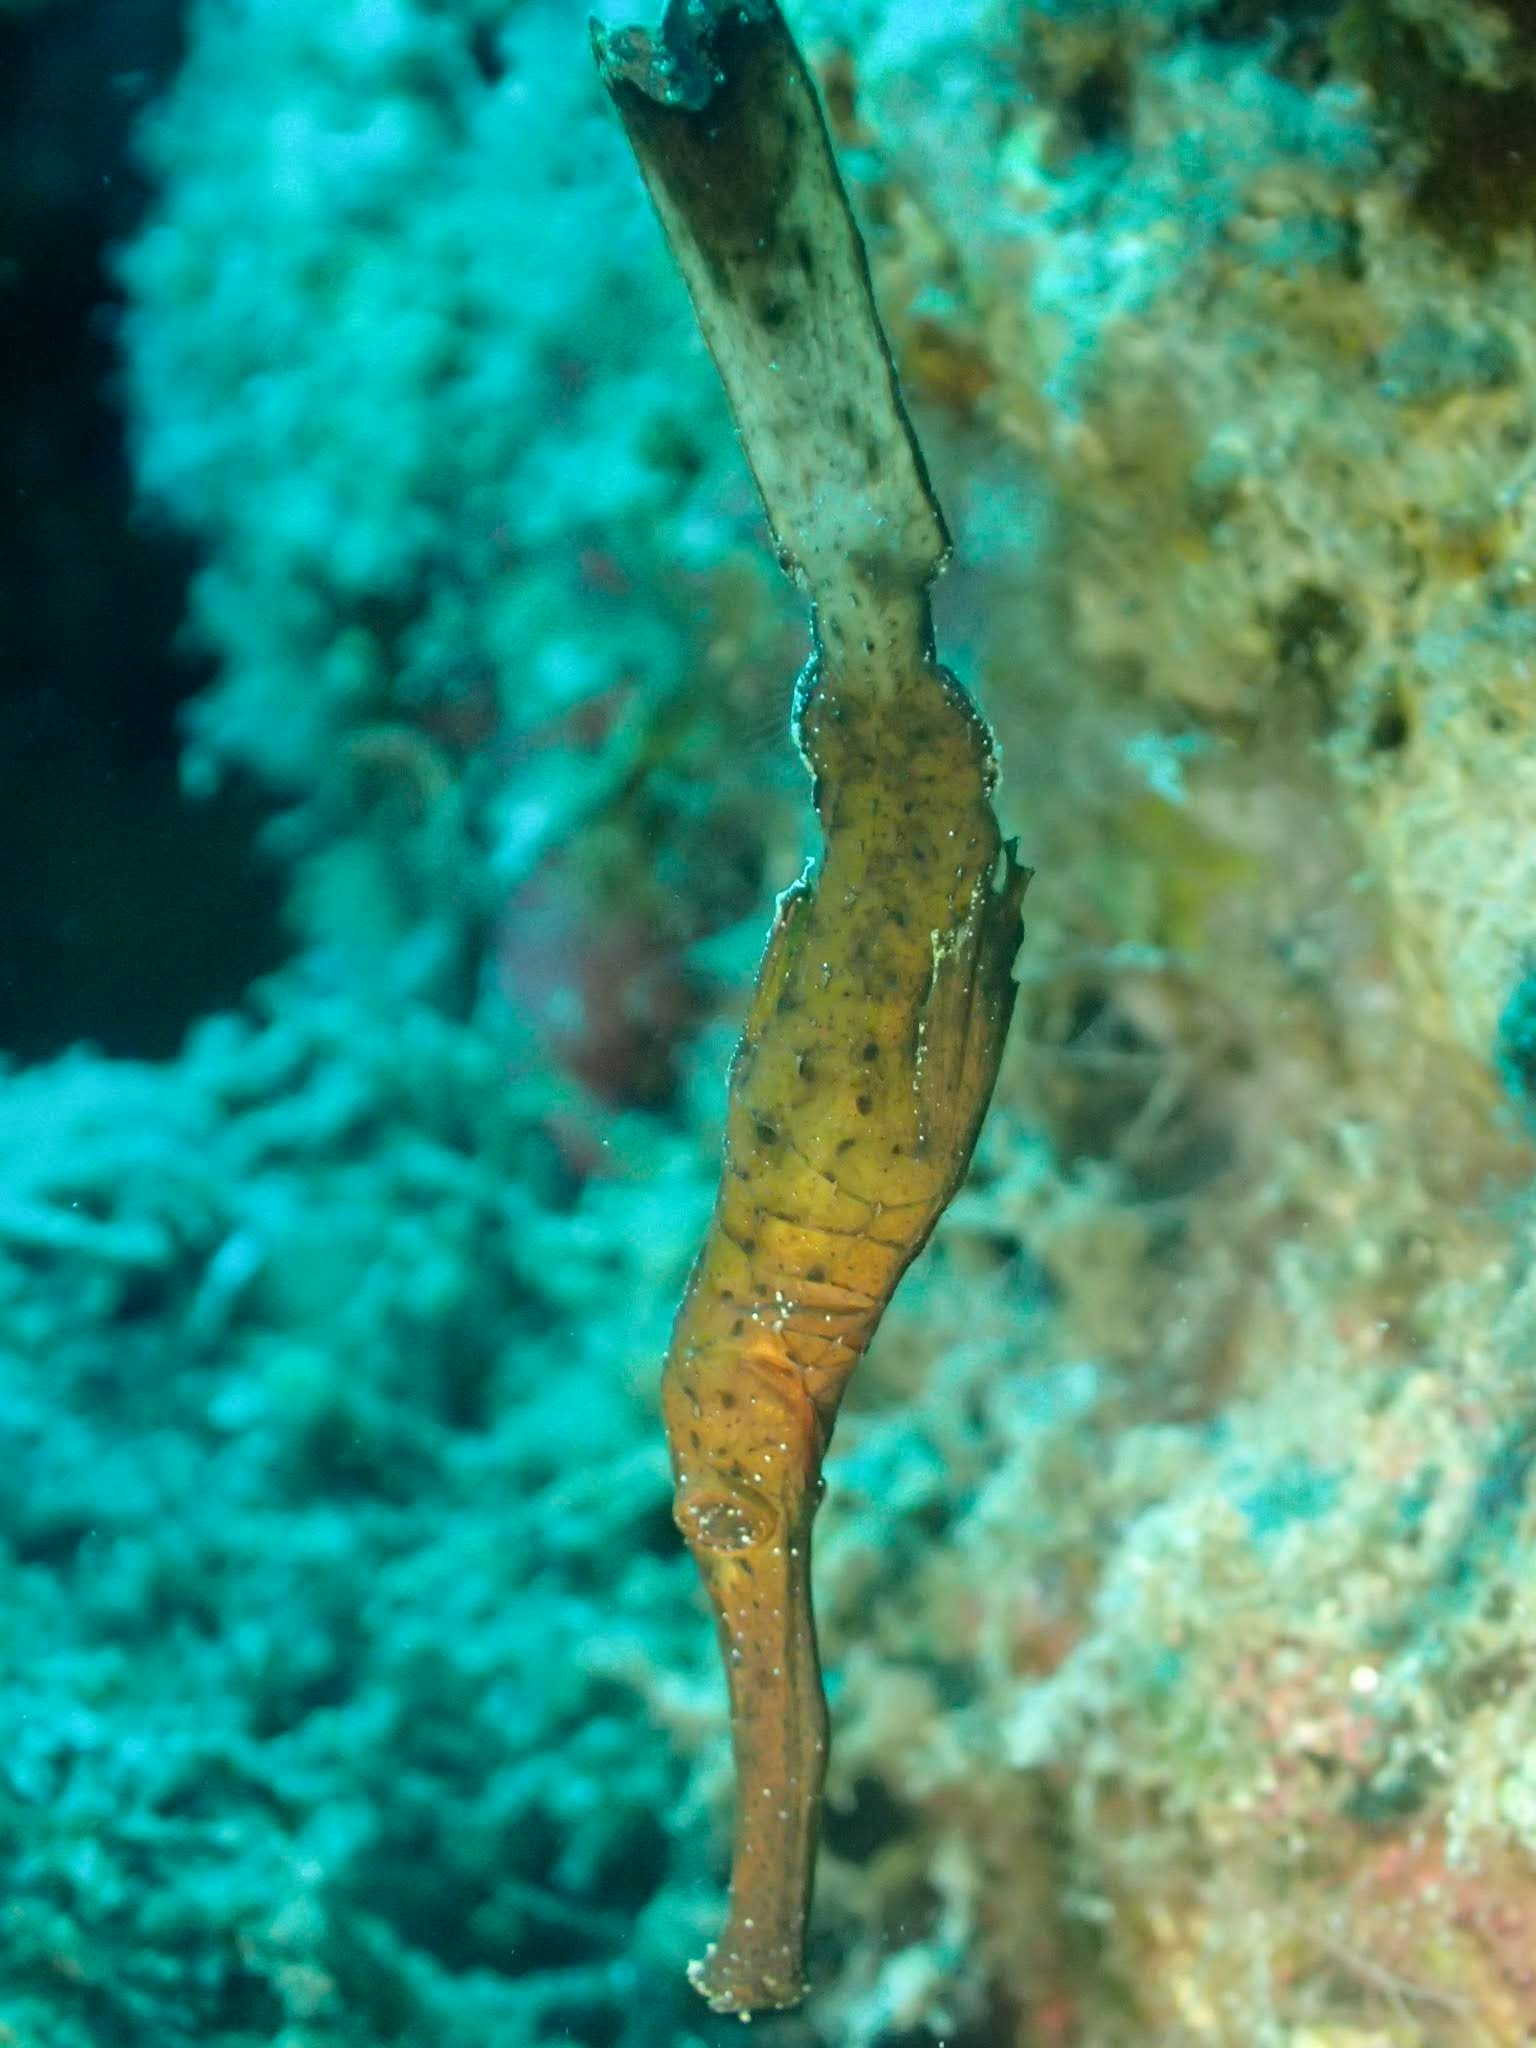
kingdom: Animalia
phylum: Chordata
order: Syngnathiformes
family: Solenostomidae
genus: Solenostomus
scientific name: Solenostomus cyanopterus
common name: Blue-finned ghost pipefish
